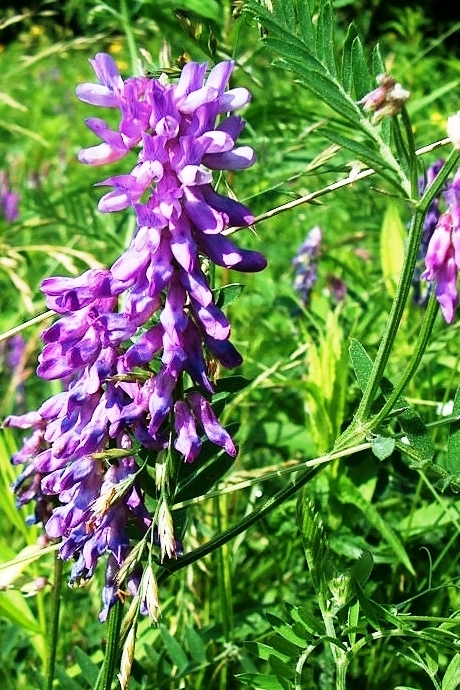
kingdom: Plantae
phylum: Tracheophyta
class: Magnoliopsida
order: Fabales
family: Fabaceae
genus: Vicia
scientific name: Vicia cracca
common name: Bird vetch
